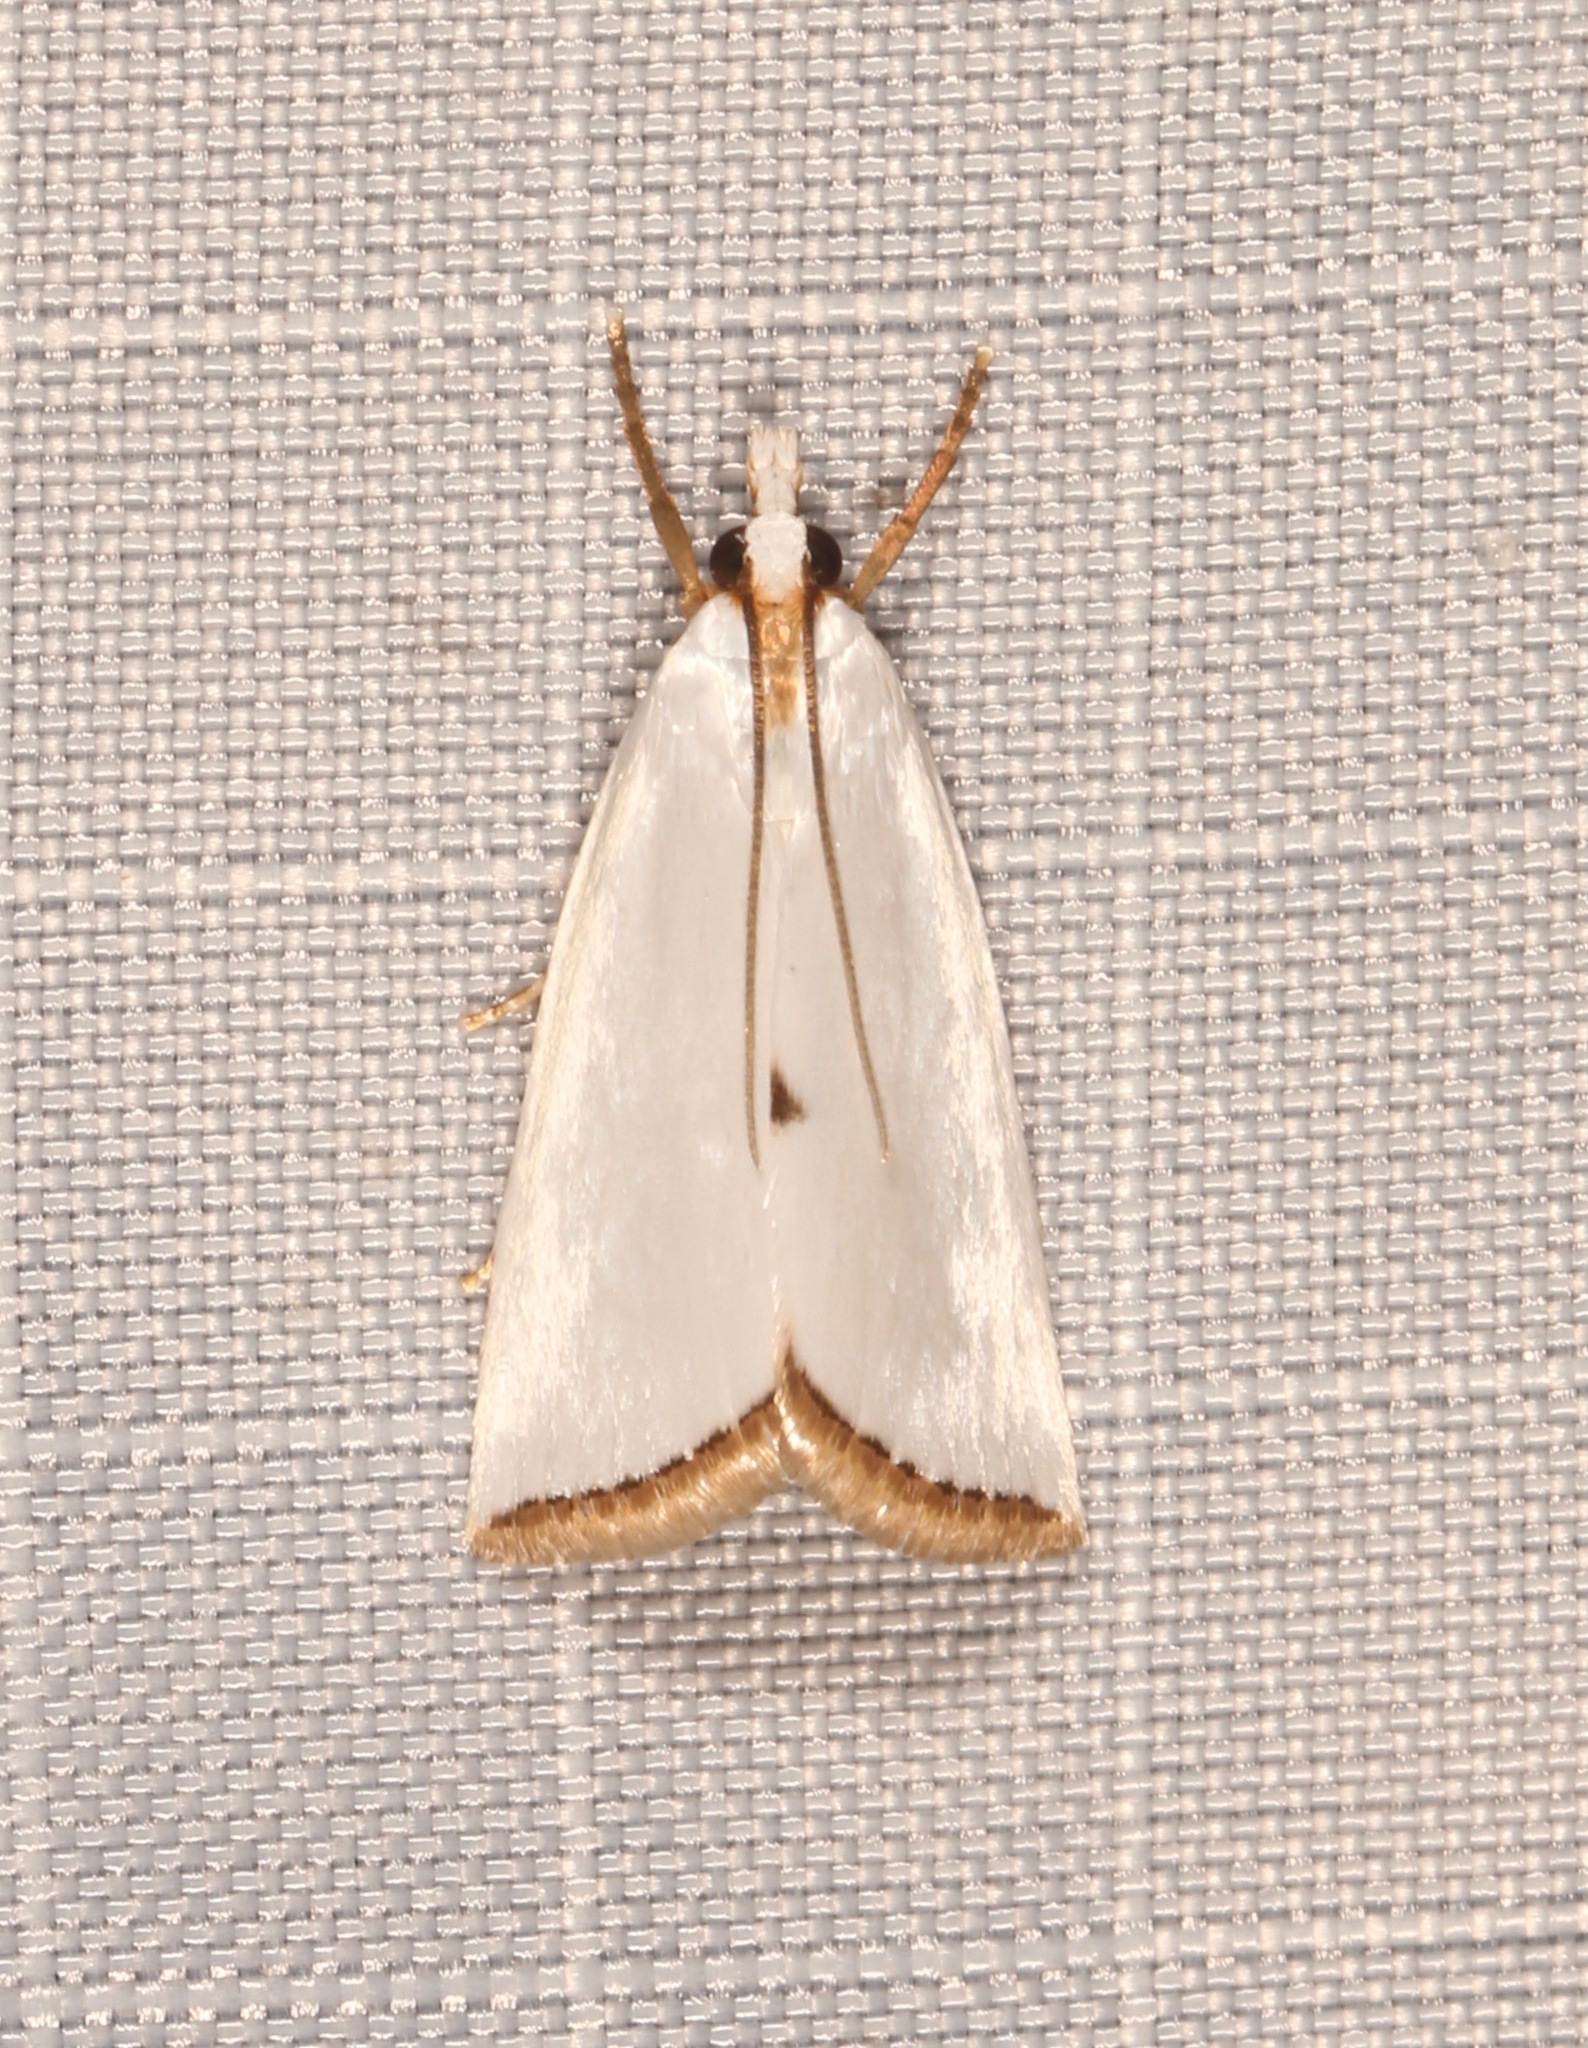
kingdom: Animalia
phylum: Arthropoda
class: Insecta
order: Lepidoptera
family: Crambidae
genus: Argyria
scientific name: Argyria nivalis
